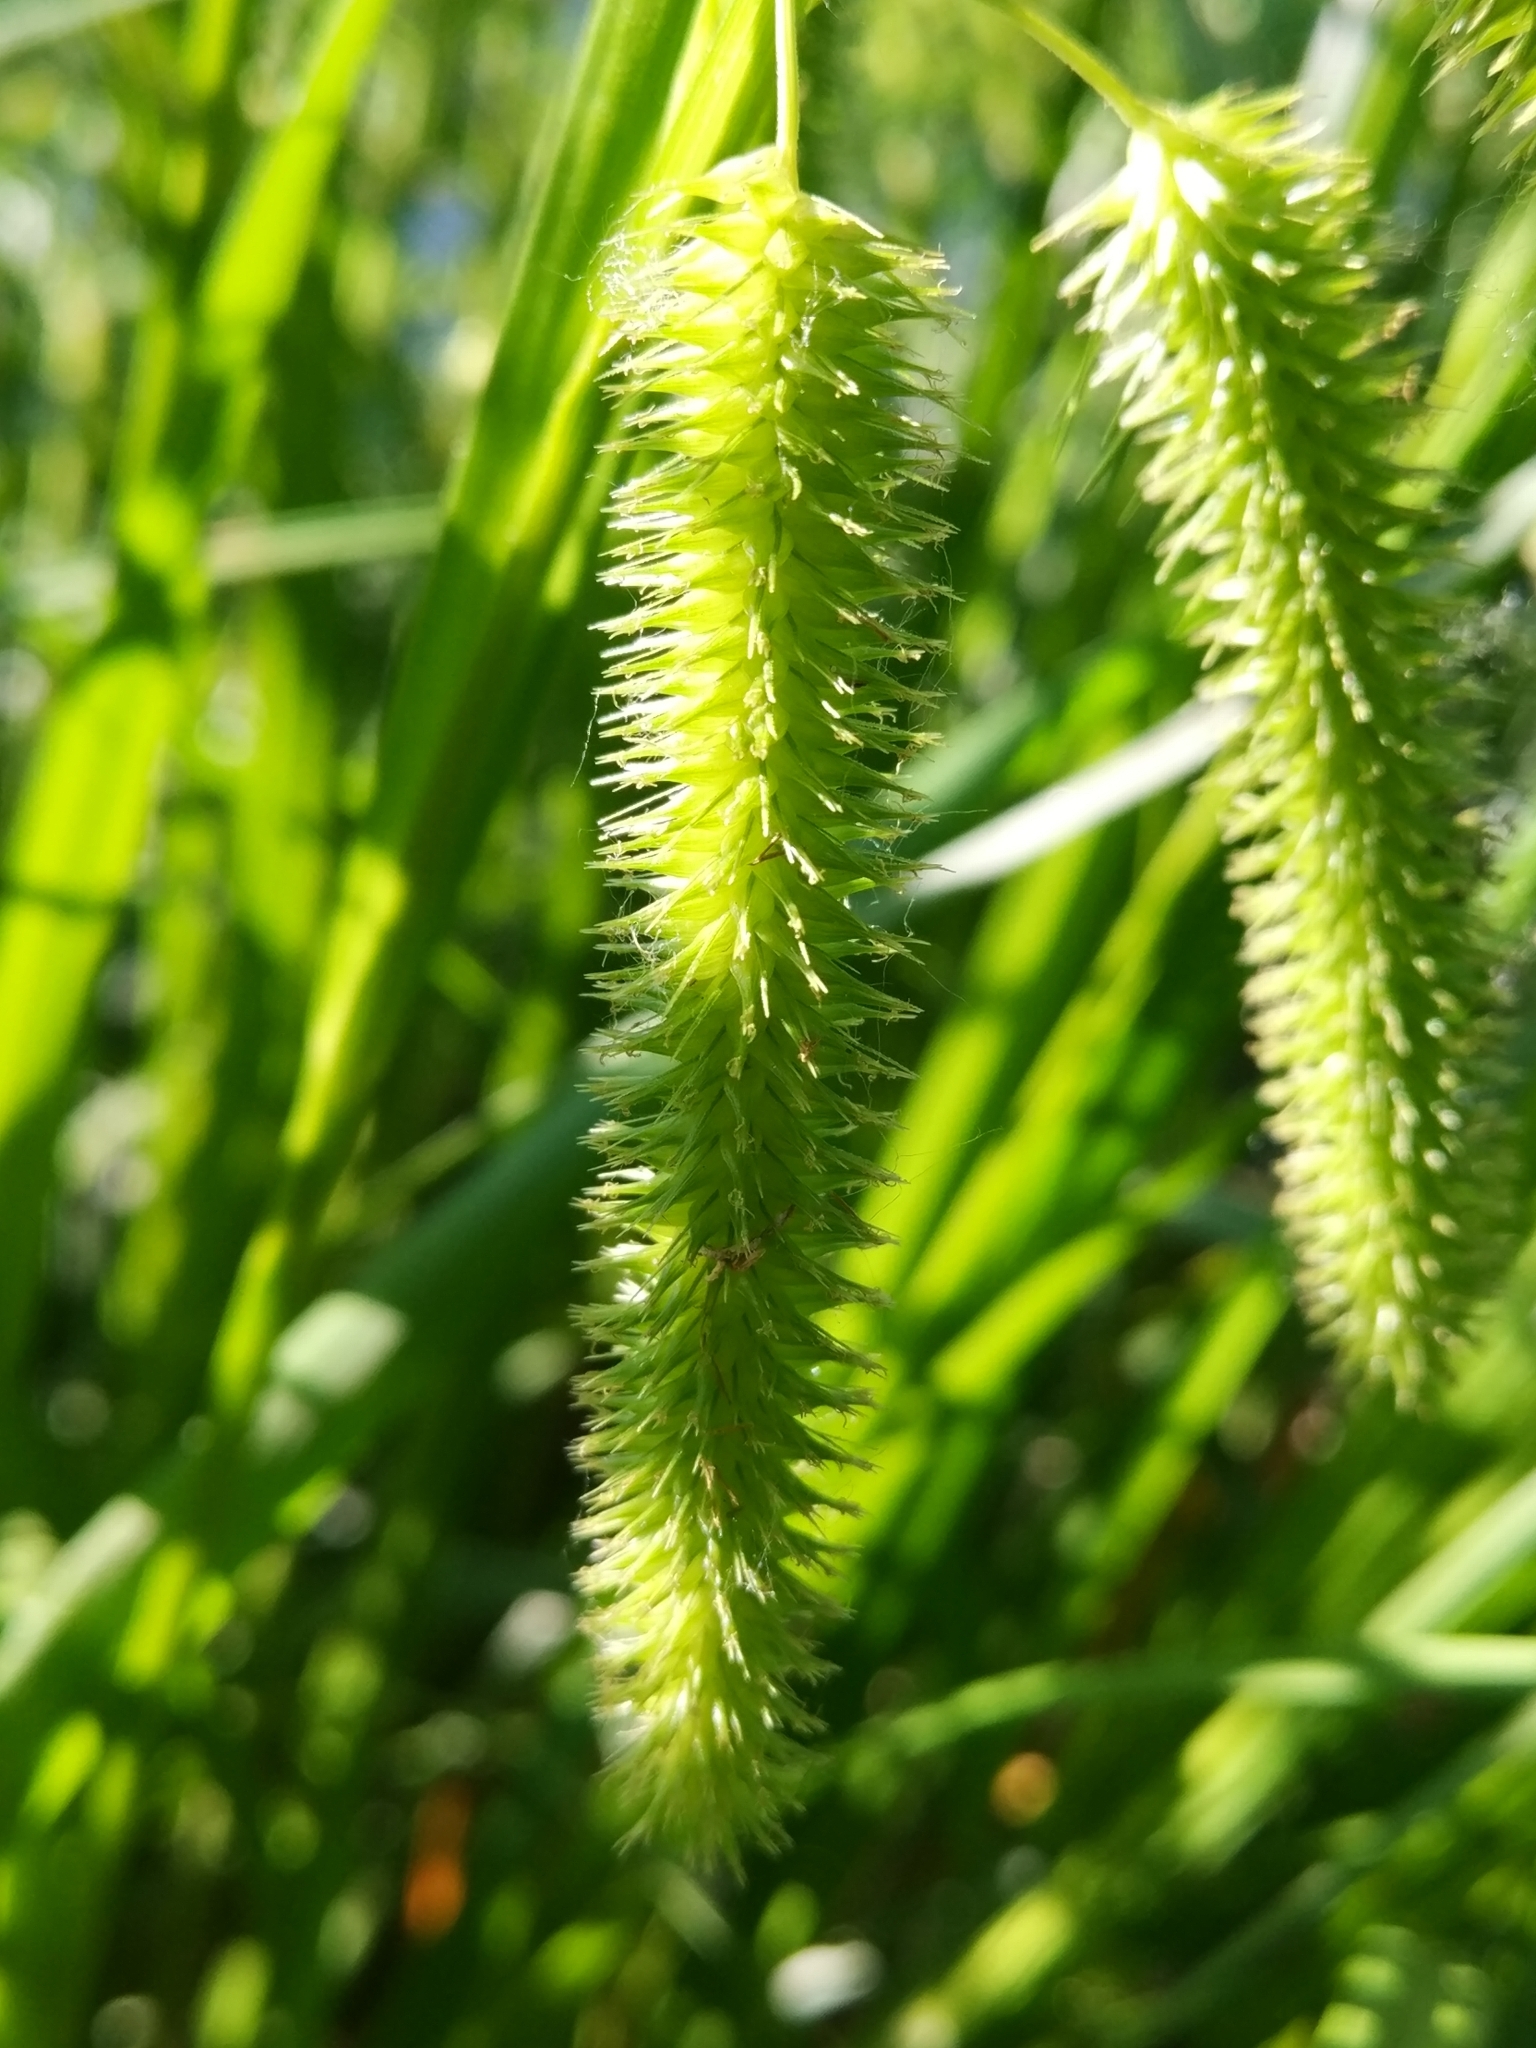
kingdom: Plantae
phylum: Tracheophyta
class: Liliopsida
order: Poales
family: Cyperaceae
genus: Carex
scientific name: Carex pseudocyperus
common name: Cyperus sedge
